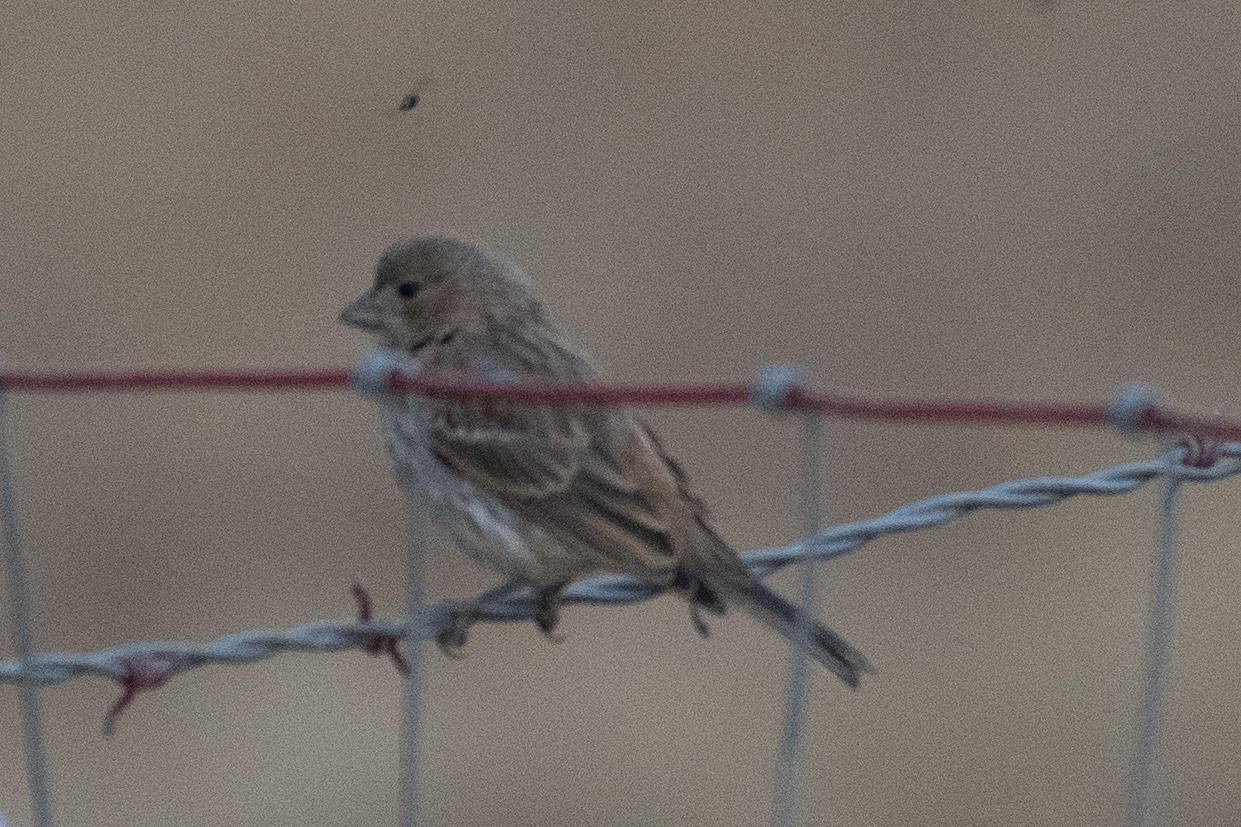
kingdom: Animalia
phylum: Chordata
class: Aves
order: Passeriformes
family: Fringillidae
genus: Haemorhous
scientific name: Haemorhous mexicanus
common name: House finch
